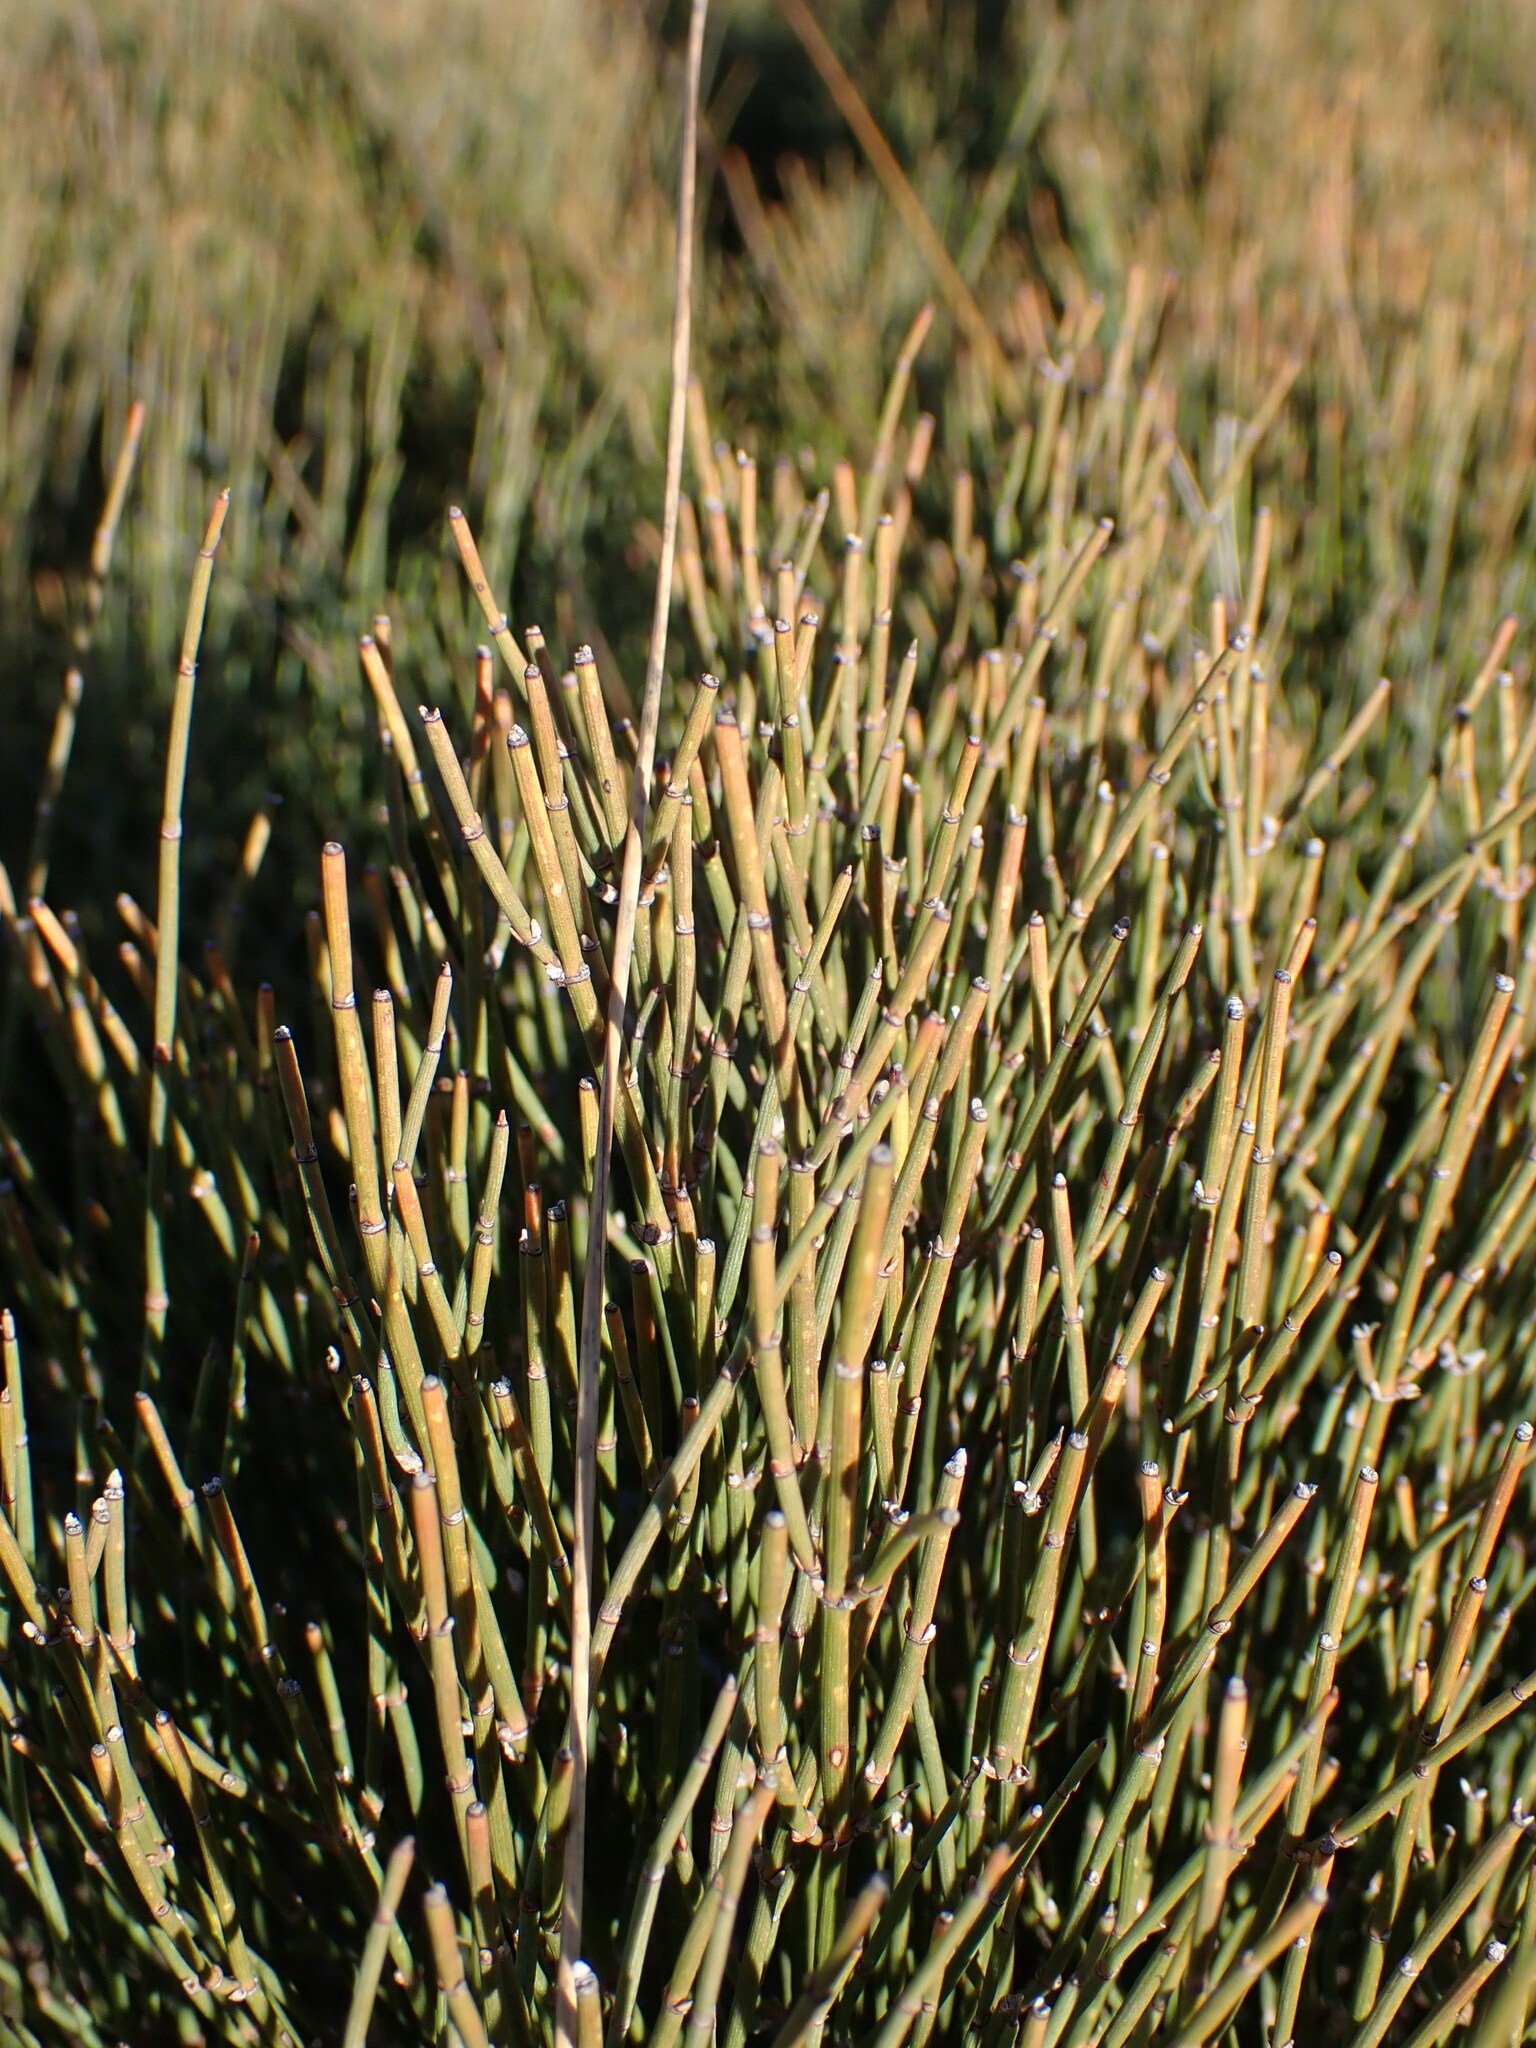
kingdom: Plantae
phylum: Tracheophyta
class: Gnetopsida
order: Ephedrales
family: Ephedraceae
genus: Ephedra
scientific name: Ephedra nebrodensis
